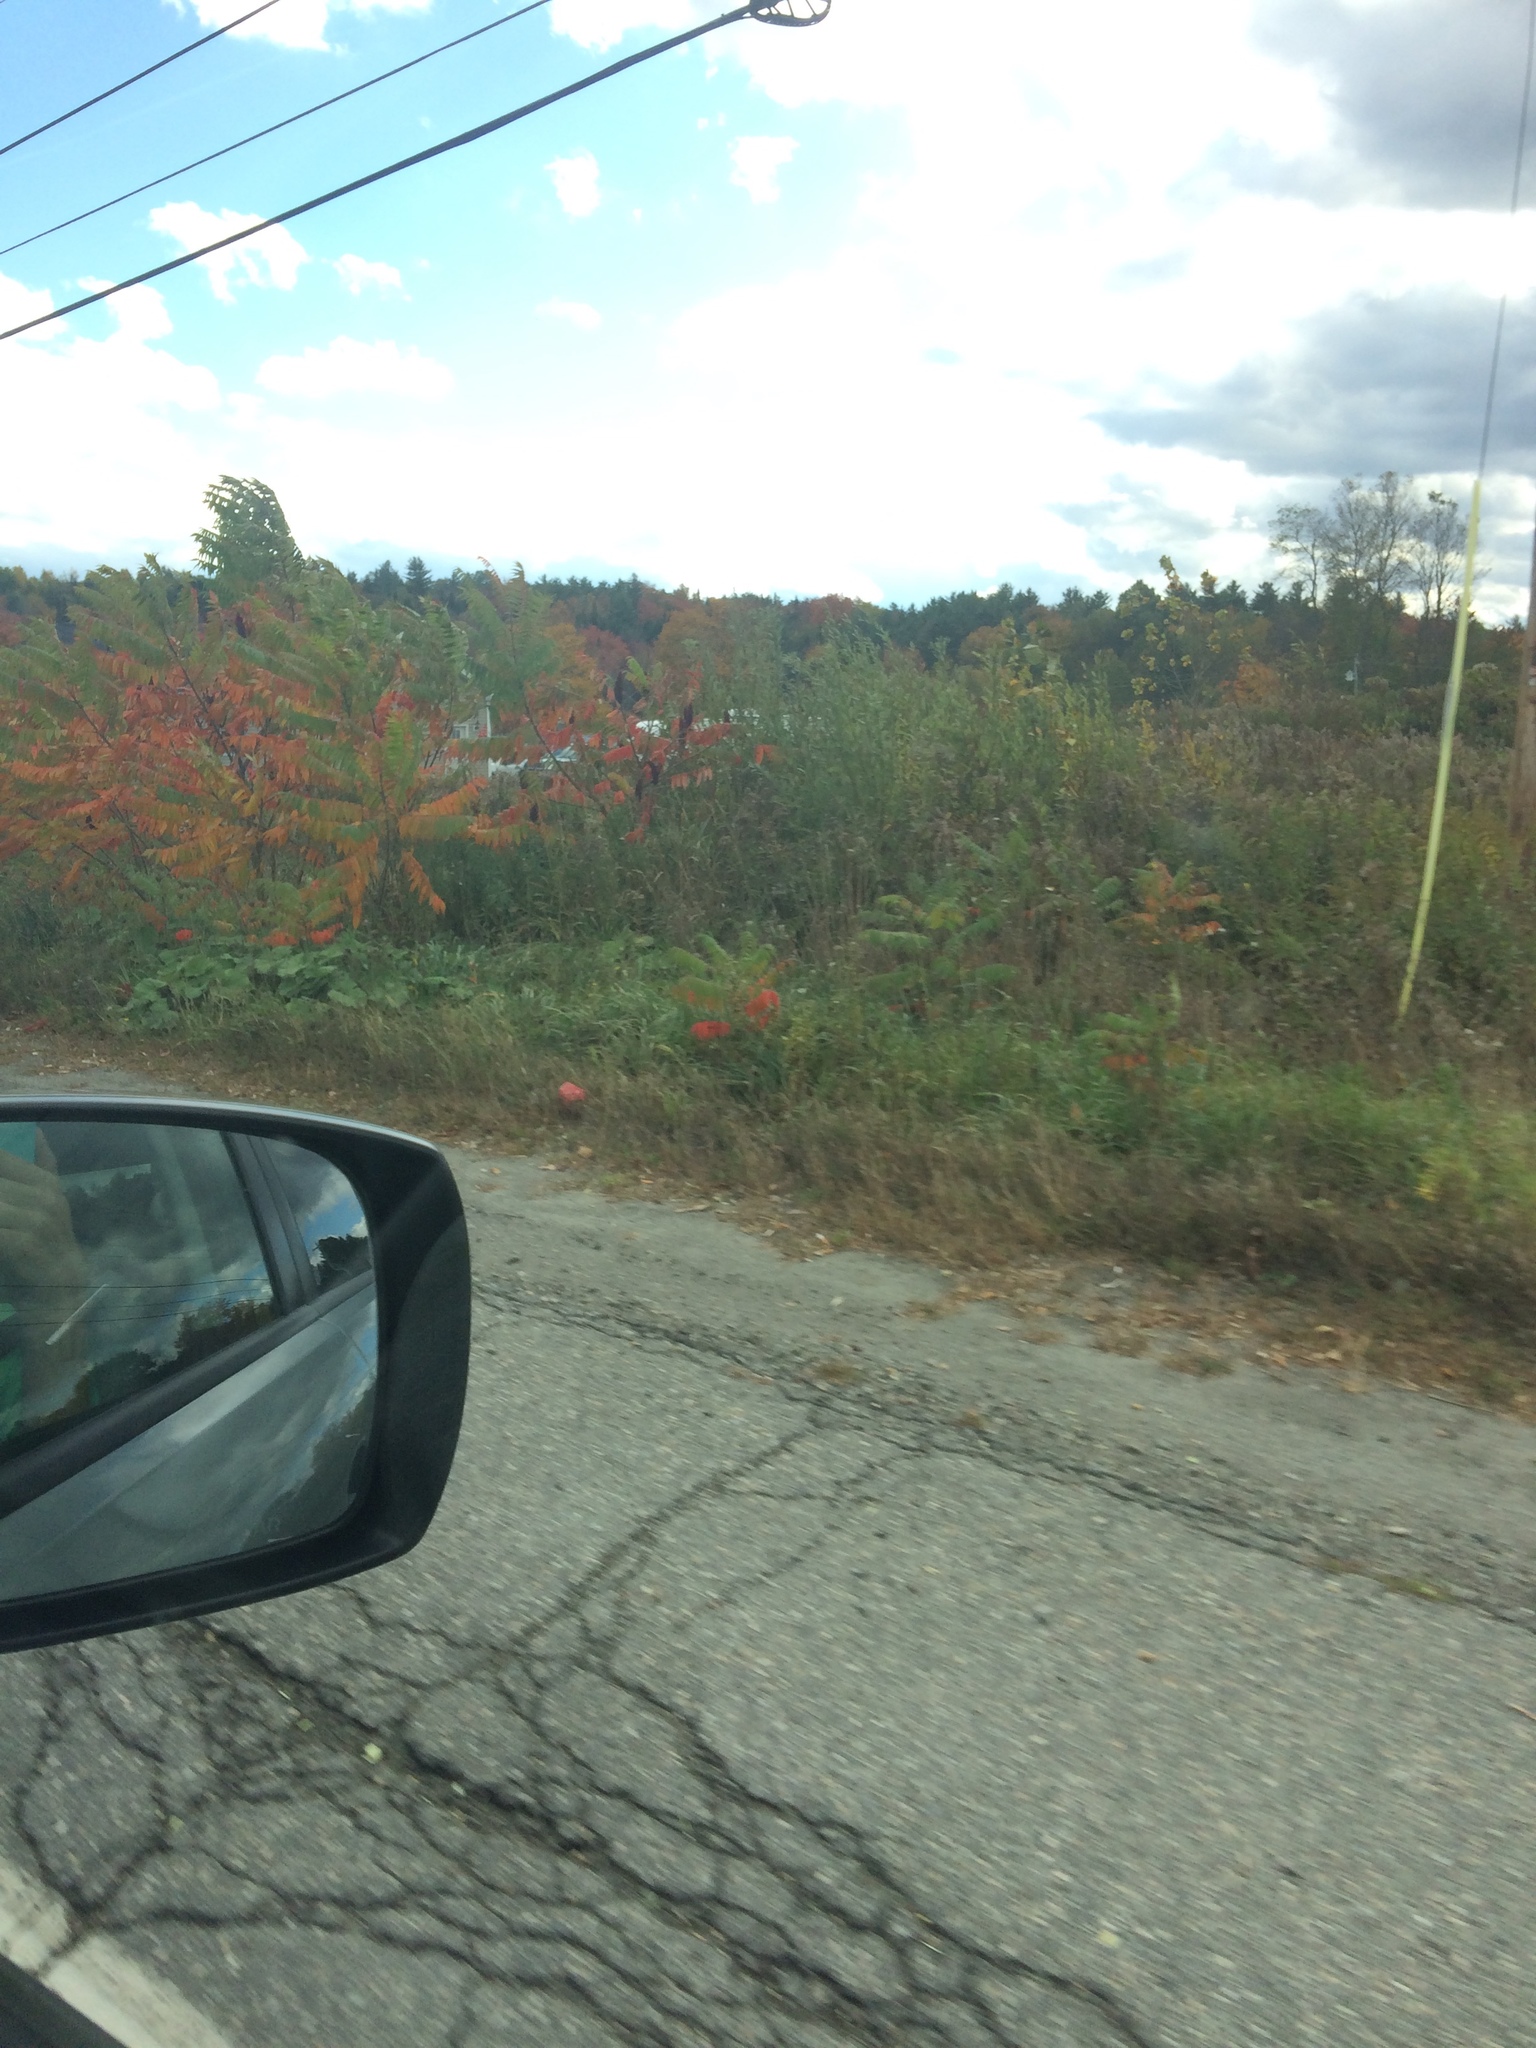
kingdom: Plantae
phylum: Tracheophyta
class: Magnoliopsida
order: Sapindales
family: Anacardiaceae
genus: Rhus
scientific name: Rhus typhina
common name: Staghorn sumac
